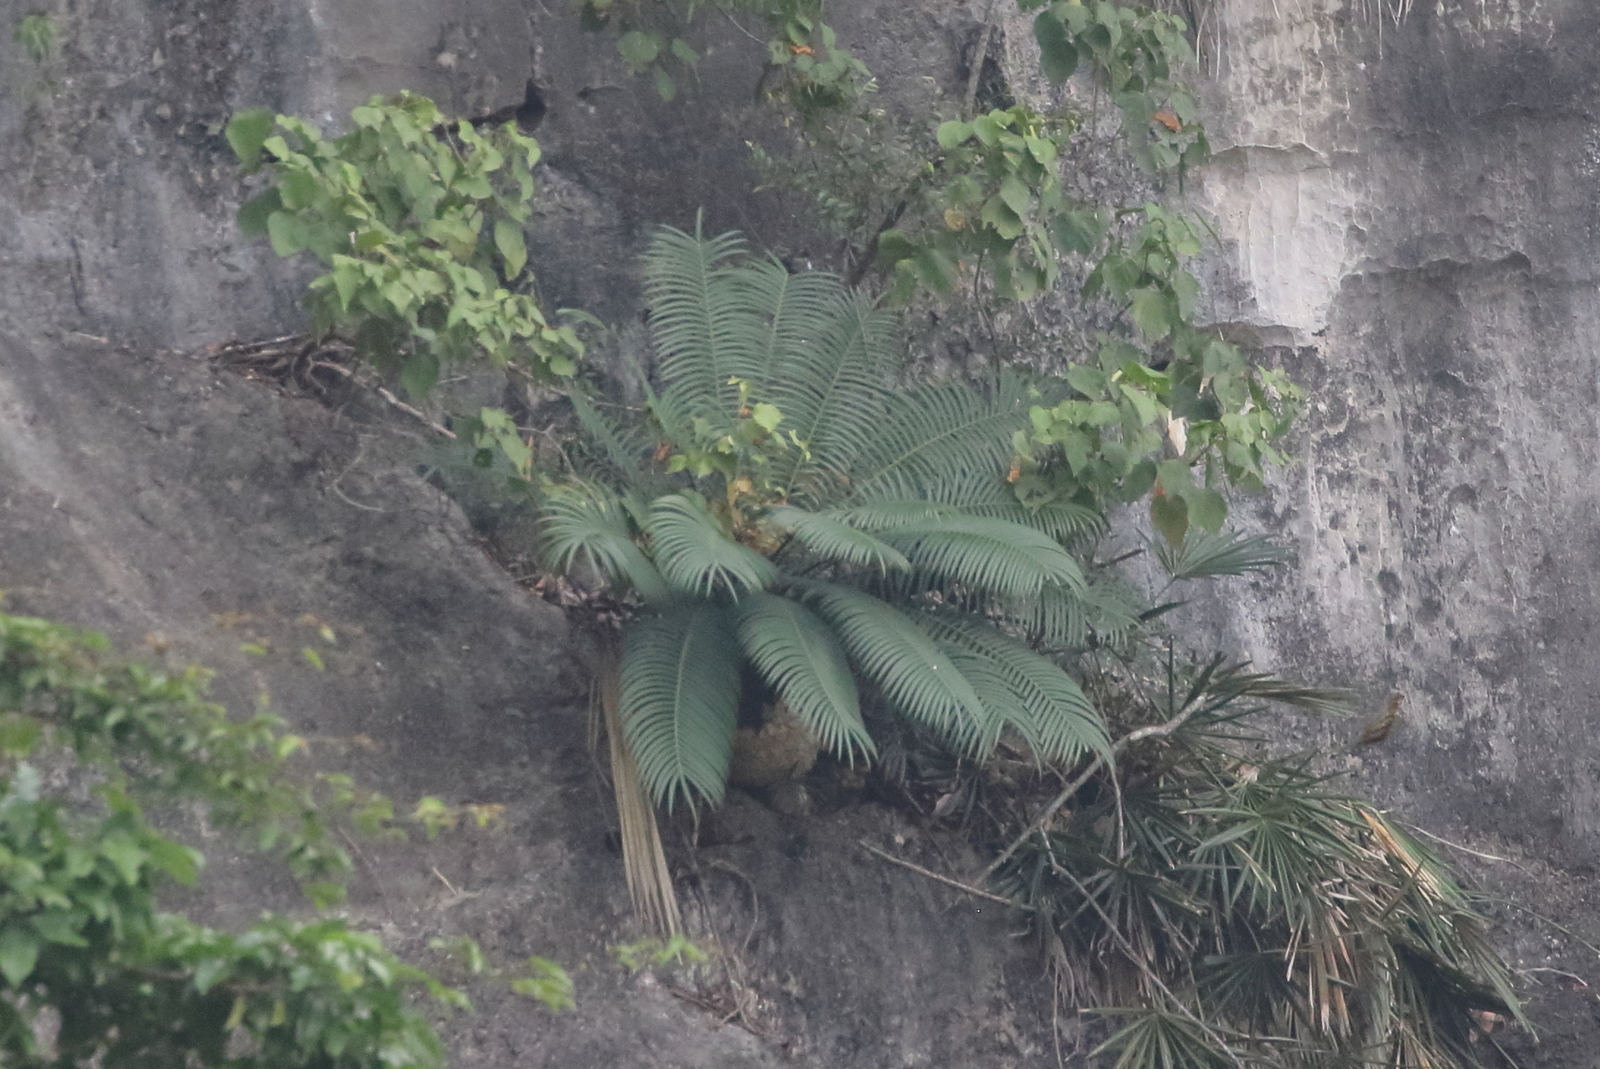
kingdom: Plantae
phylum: Tracheophyta
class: Cycadopsida
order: Cycadales
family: Cycadaceae
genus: Cycas
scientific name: Cycas sexseminifera
